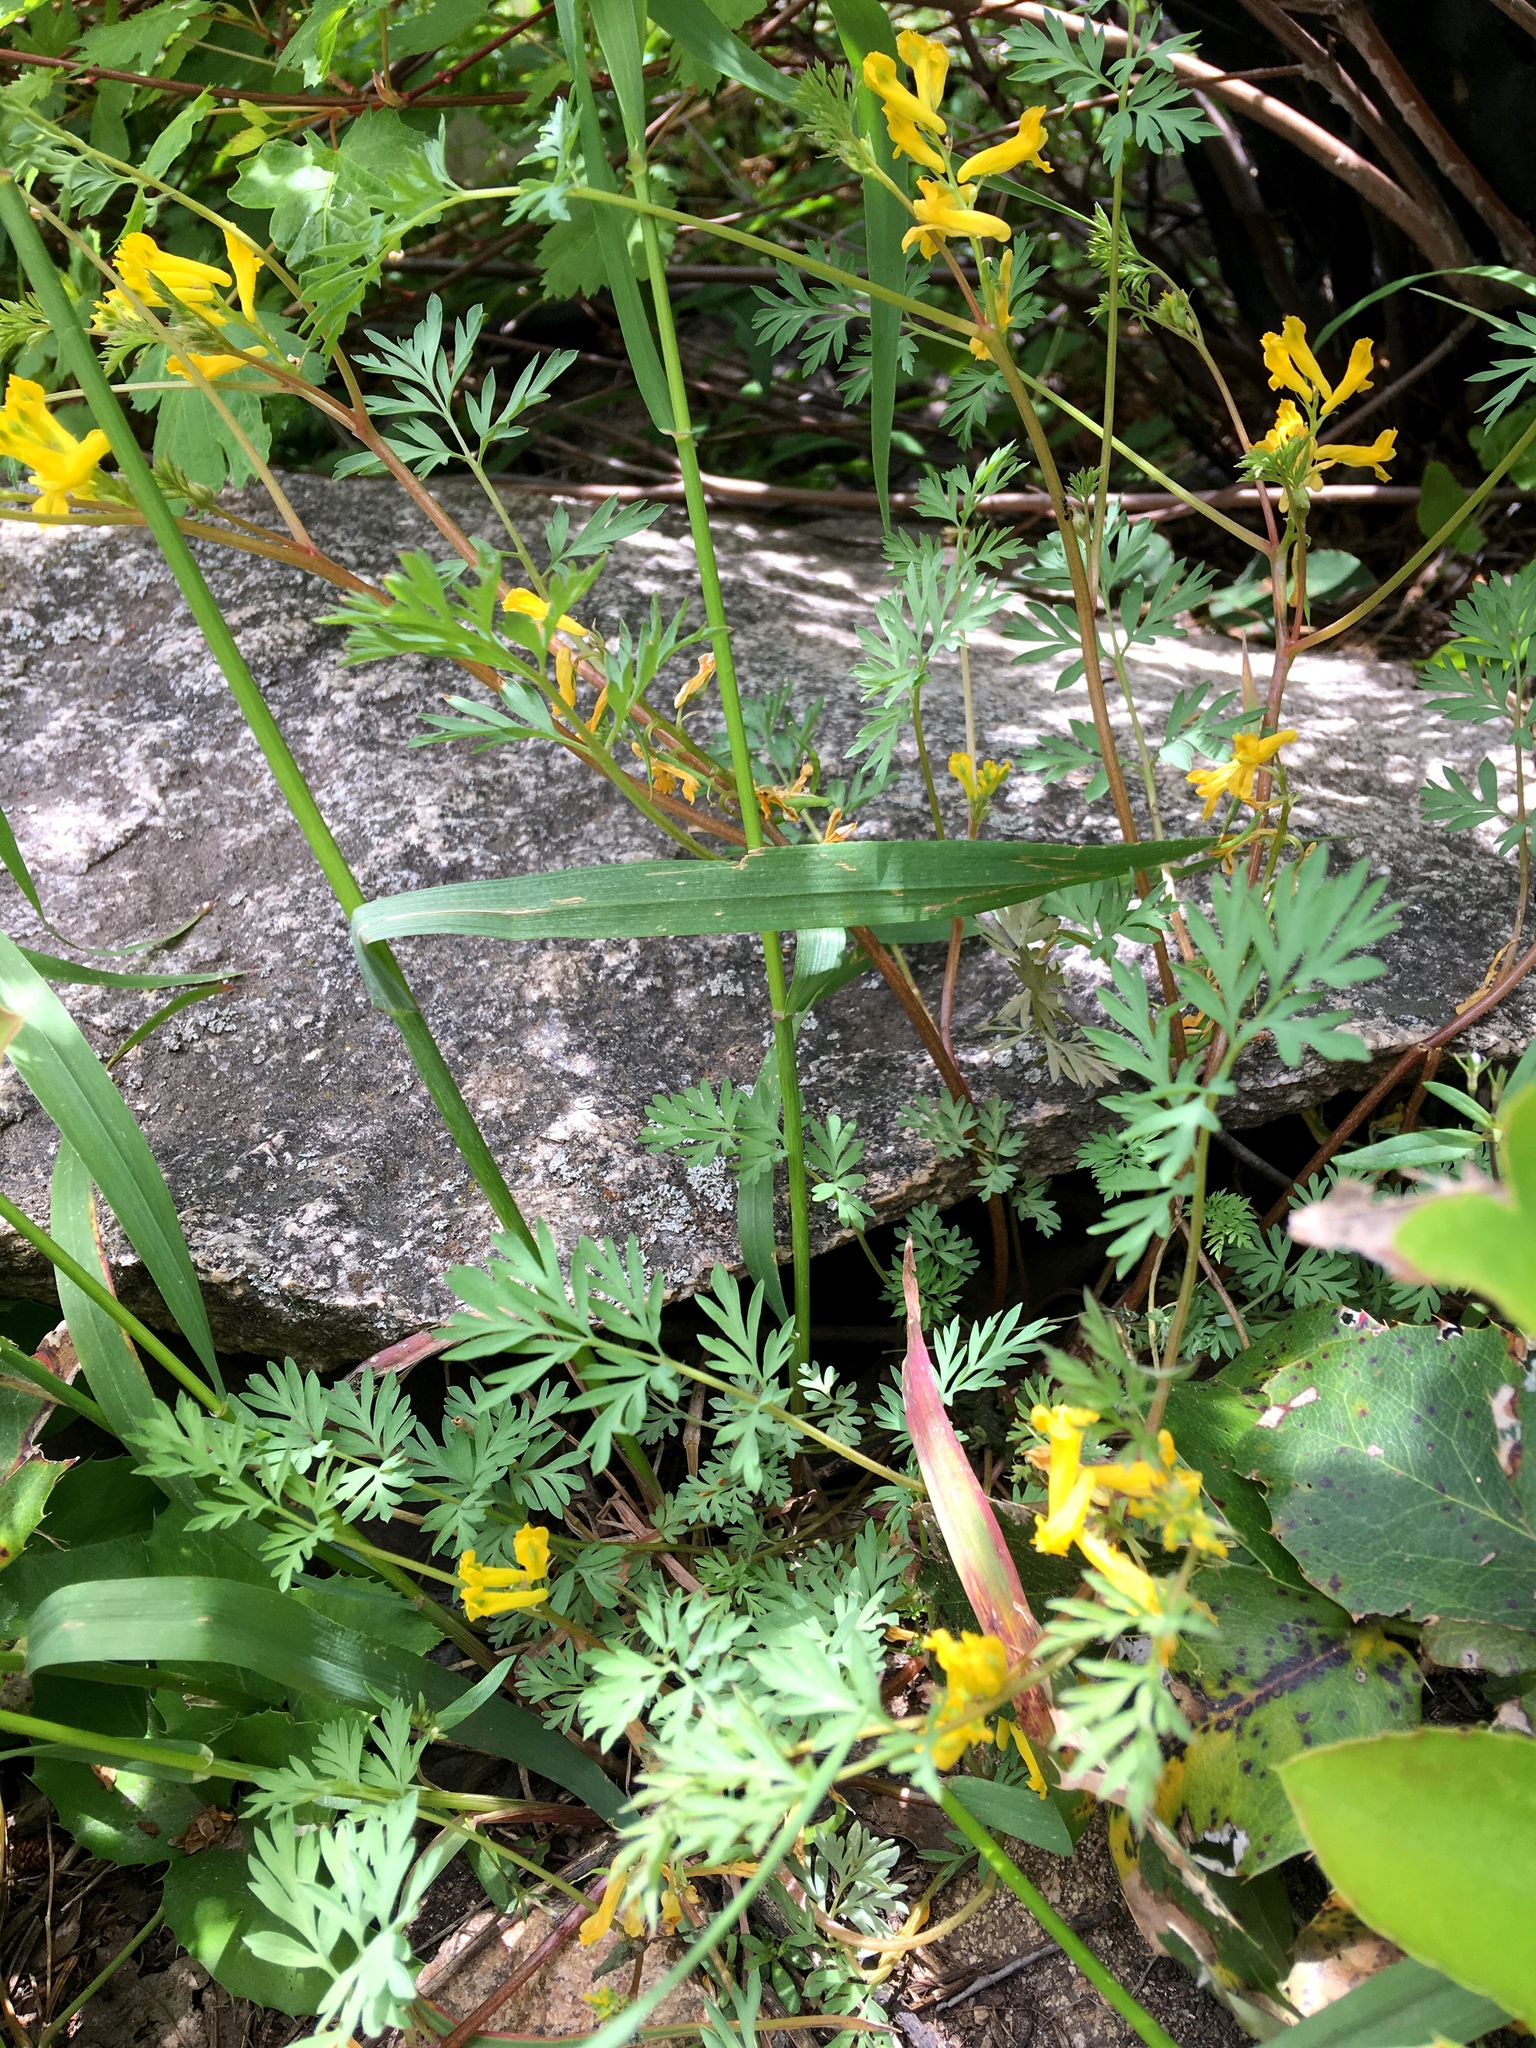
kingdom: Plantae
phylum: Tracheophyta
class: Magnoliopsida
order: Ranunculales
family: Papaveraceae
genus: Corydalis
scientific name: Corydalis aurea
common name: Golden corydalis
